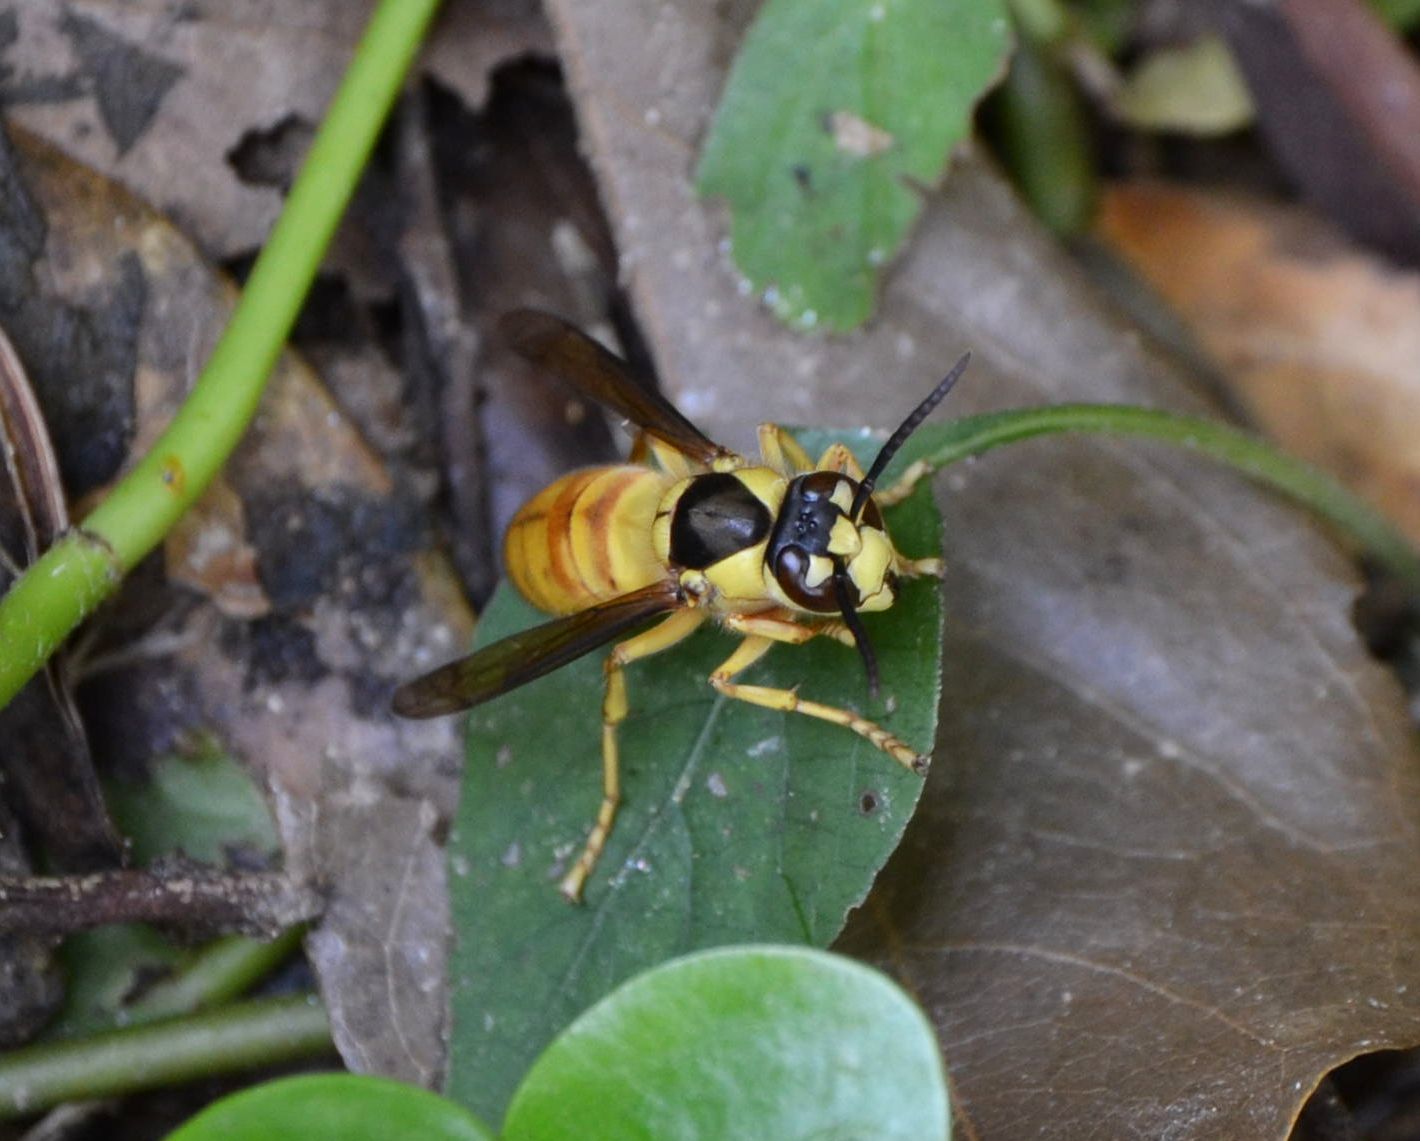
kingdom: Animalia
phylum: Arthropoda
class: Insecta
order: Hymenoptera
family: Vespidae
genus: Vespa
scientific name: Vespa bicolor
